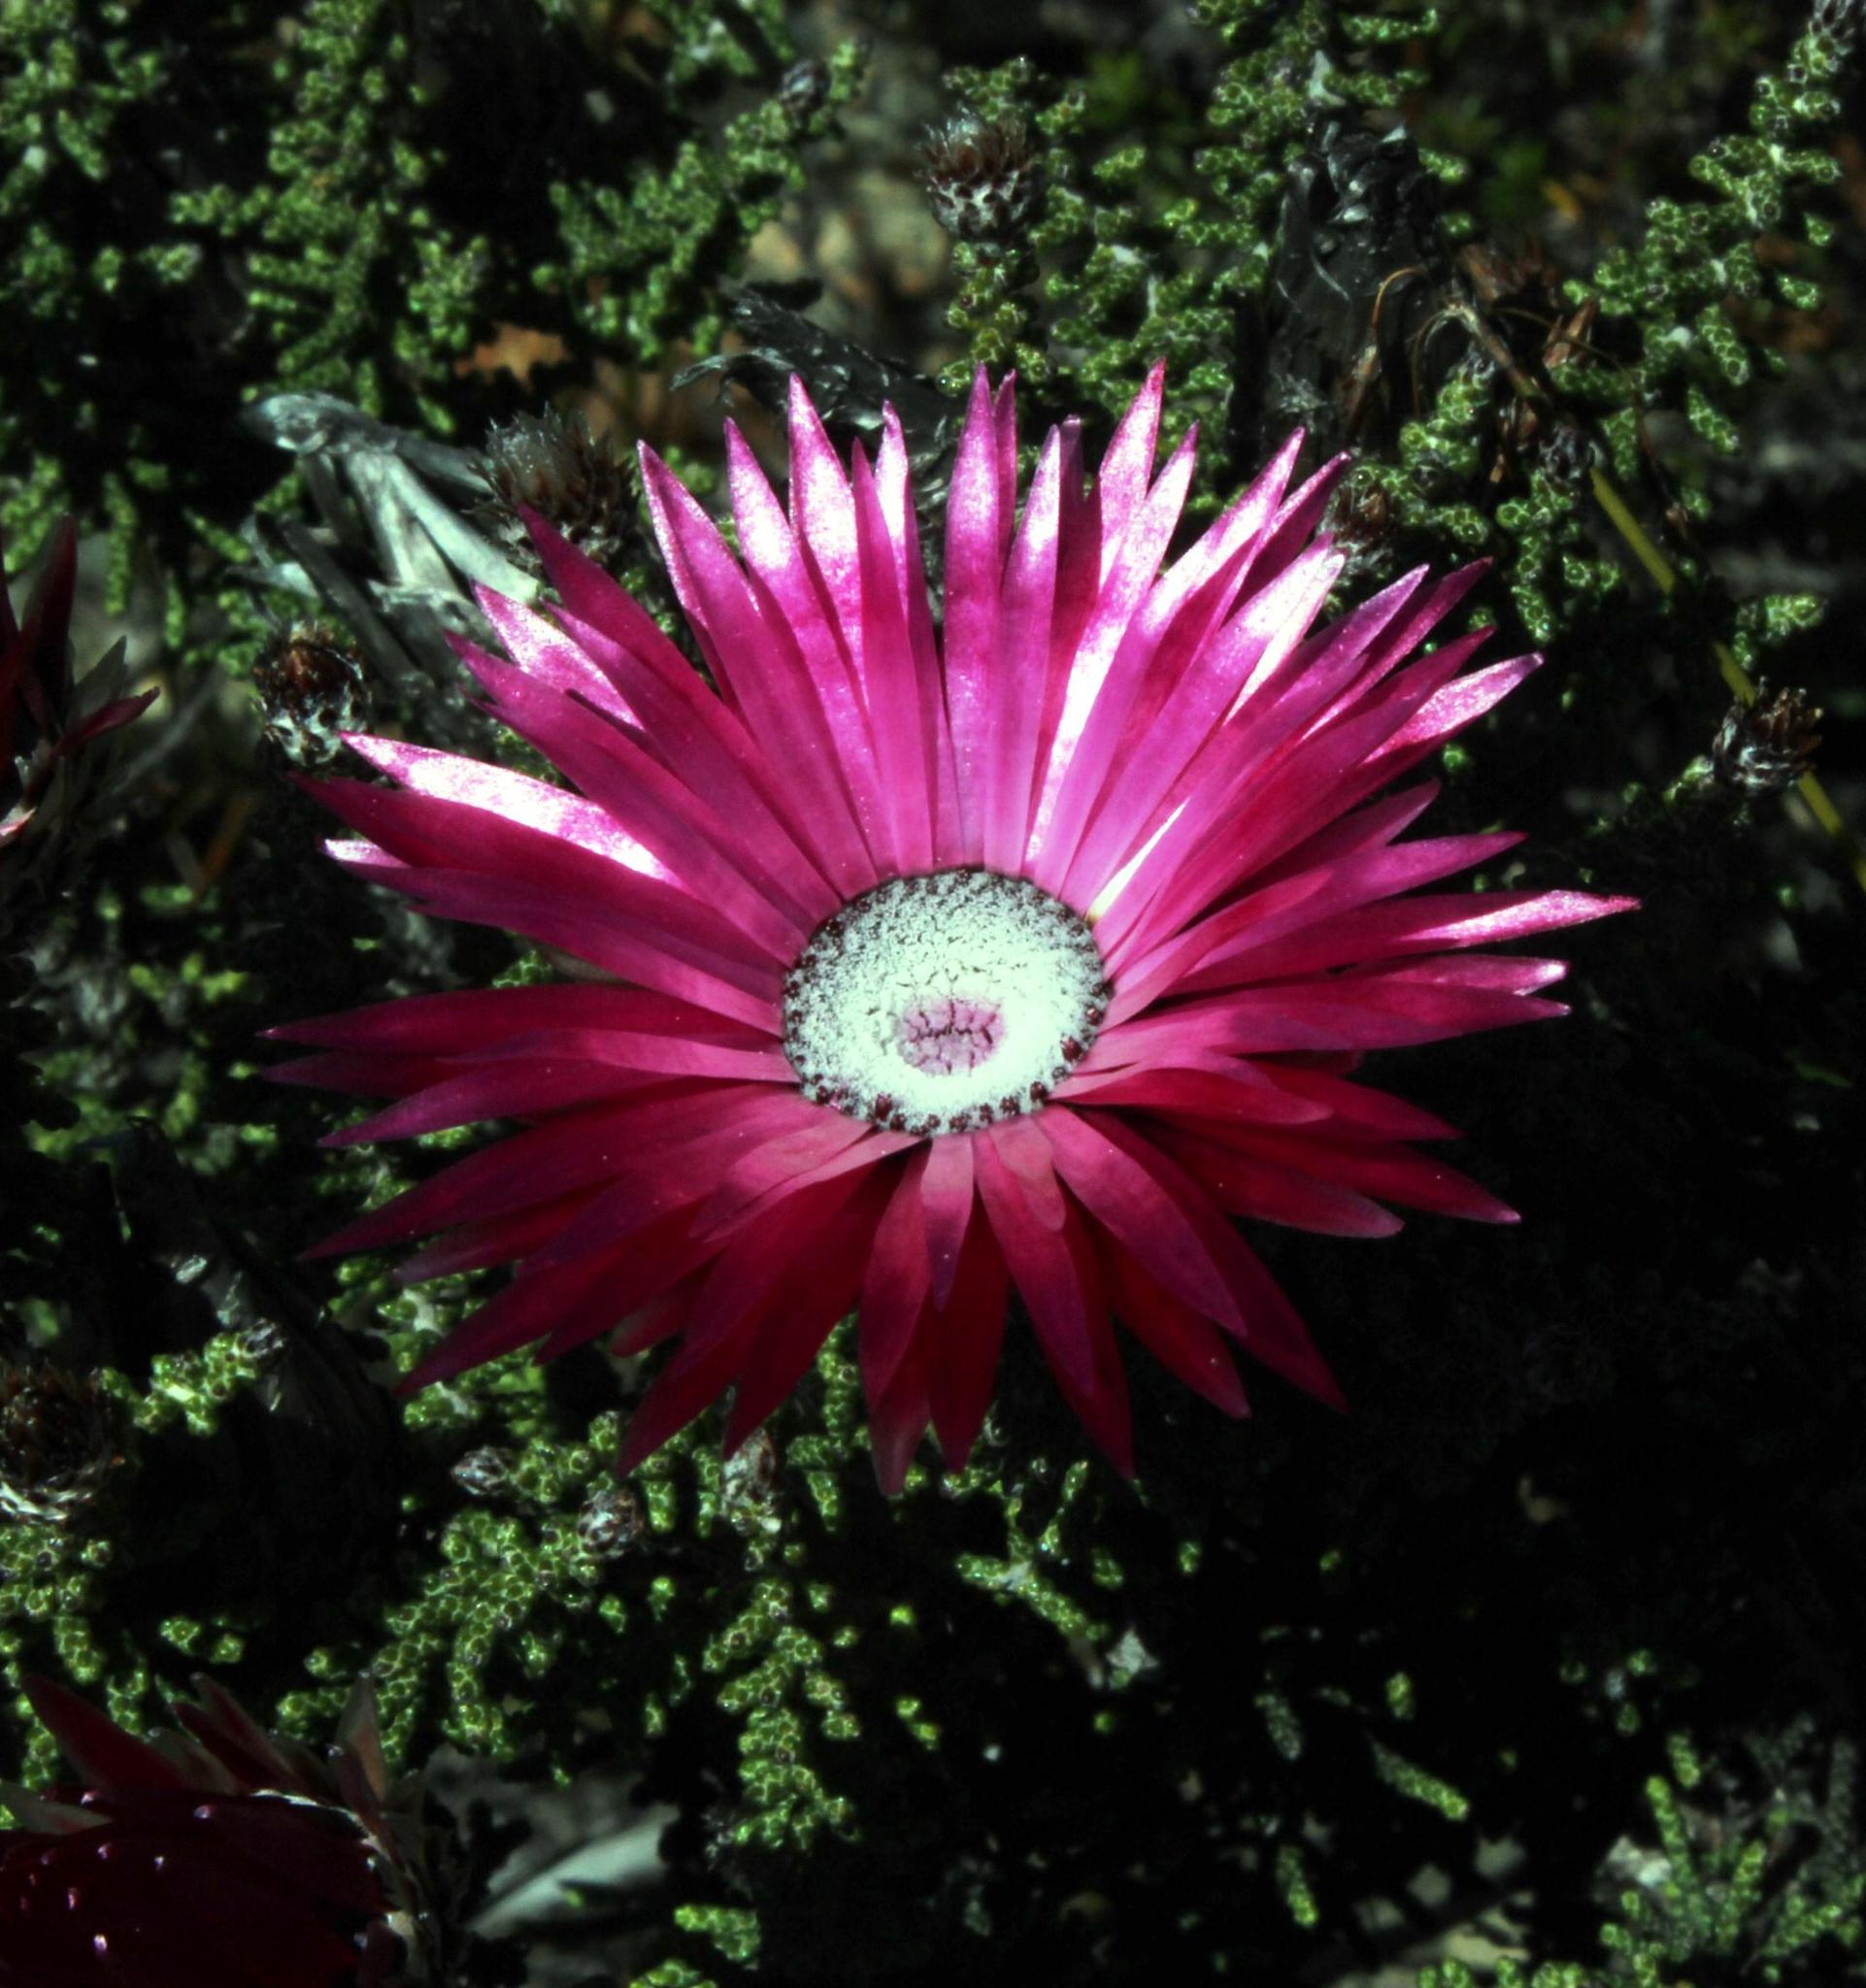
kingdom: Plantae
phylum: Tracheophyta
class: Magnoliopsida
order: Asterales
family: Asteraceae
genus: Phaenocoma
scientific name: Phaenocoma prolifera
